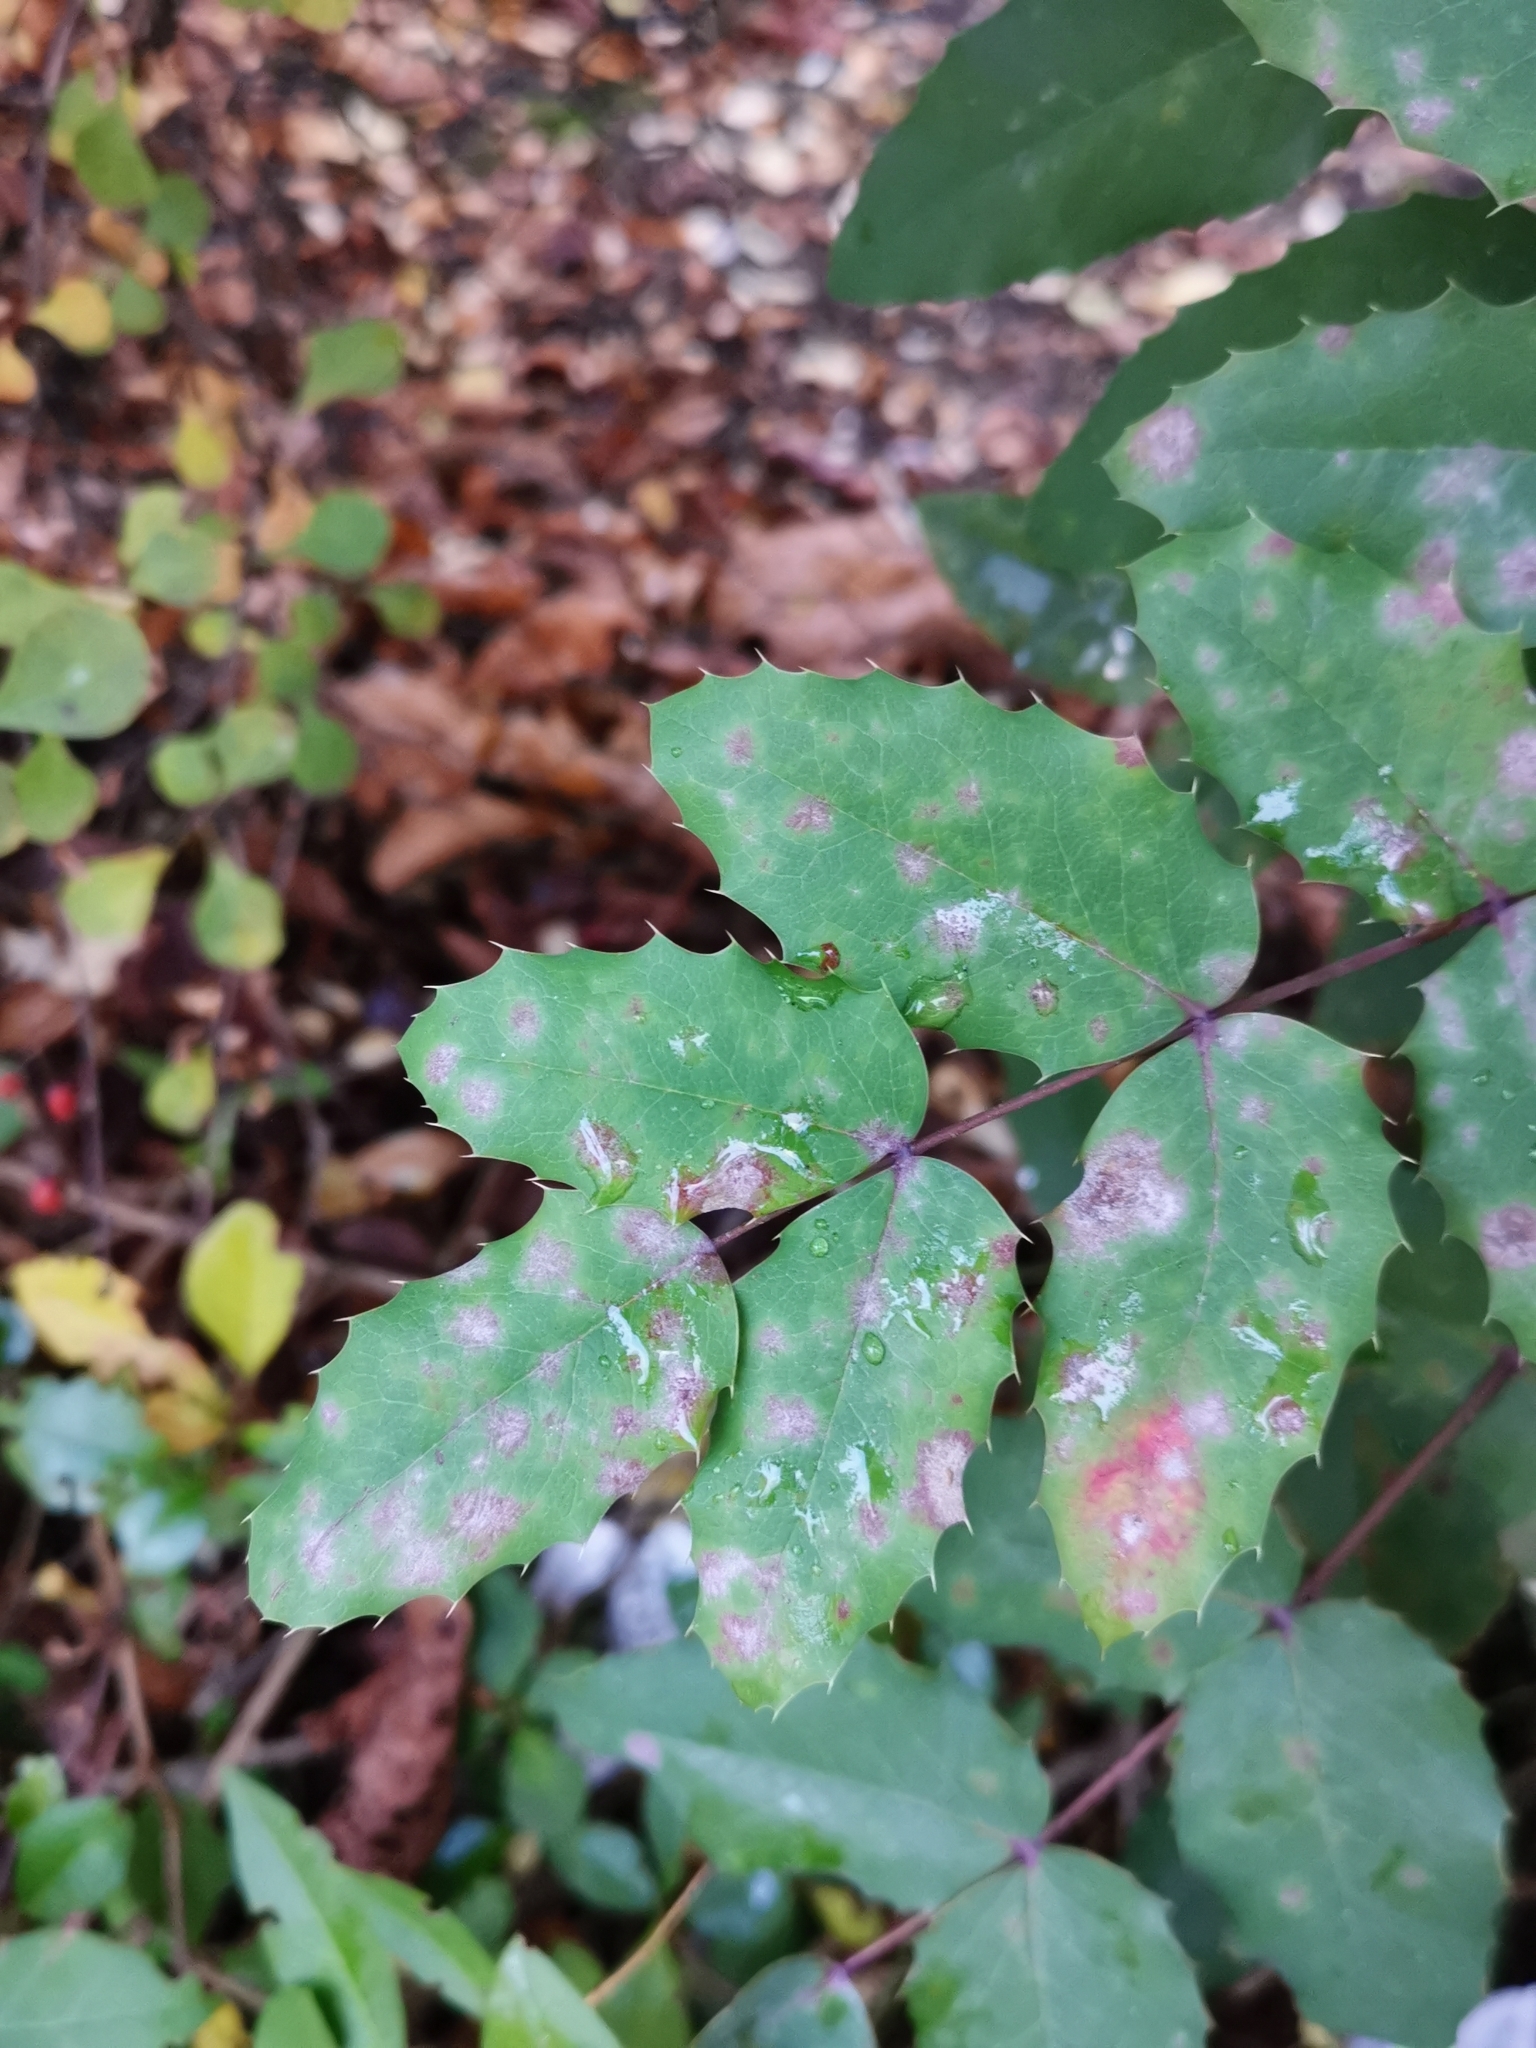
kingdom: Fungi
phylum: Ascomycota
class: Leotiomycetes
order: Helotiales
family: Erysiphaceae
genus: Erysiphe
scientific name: Erysiphe berberidis
